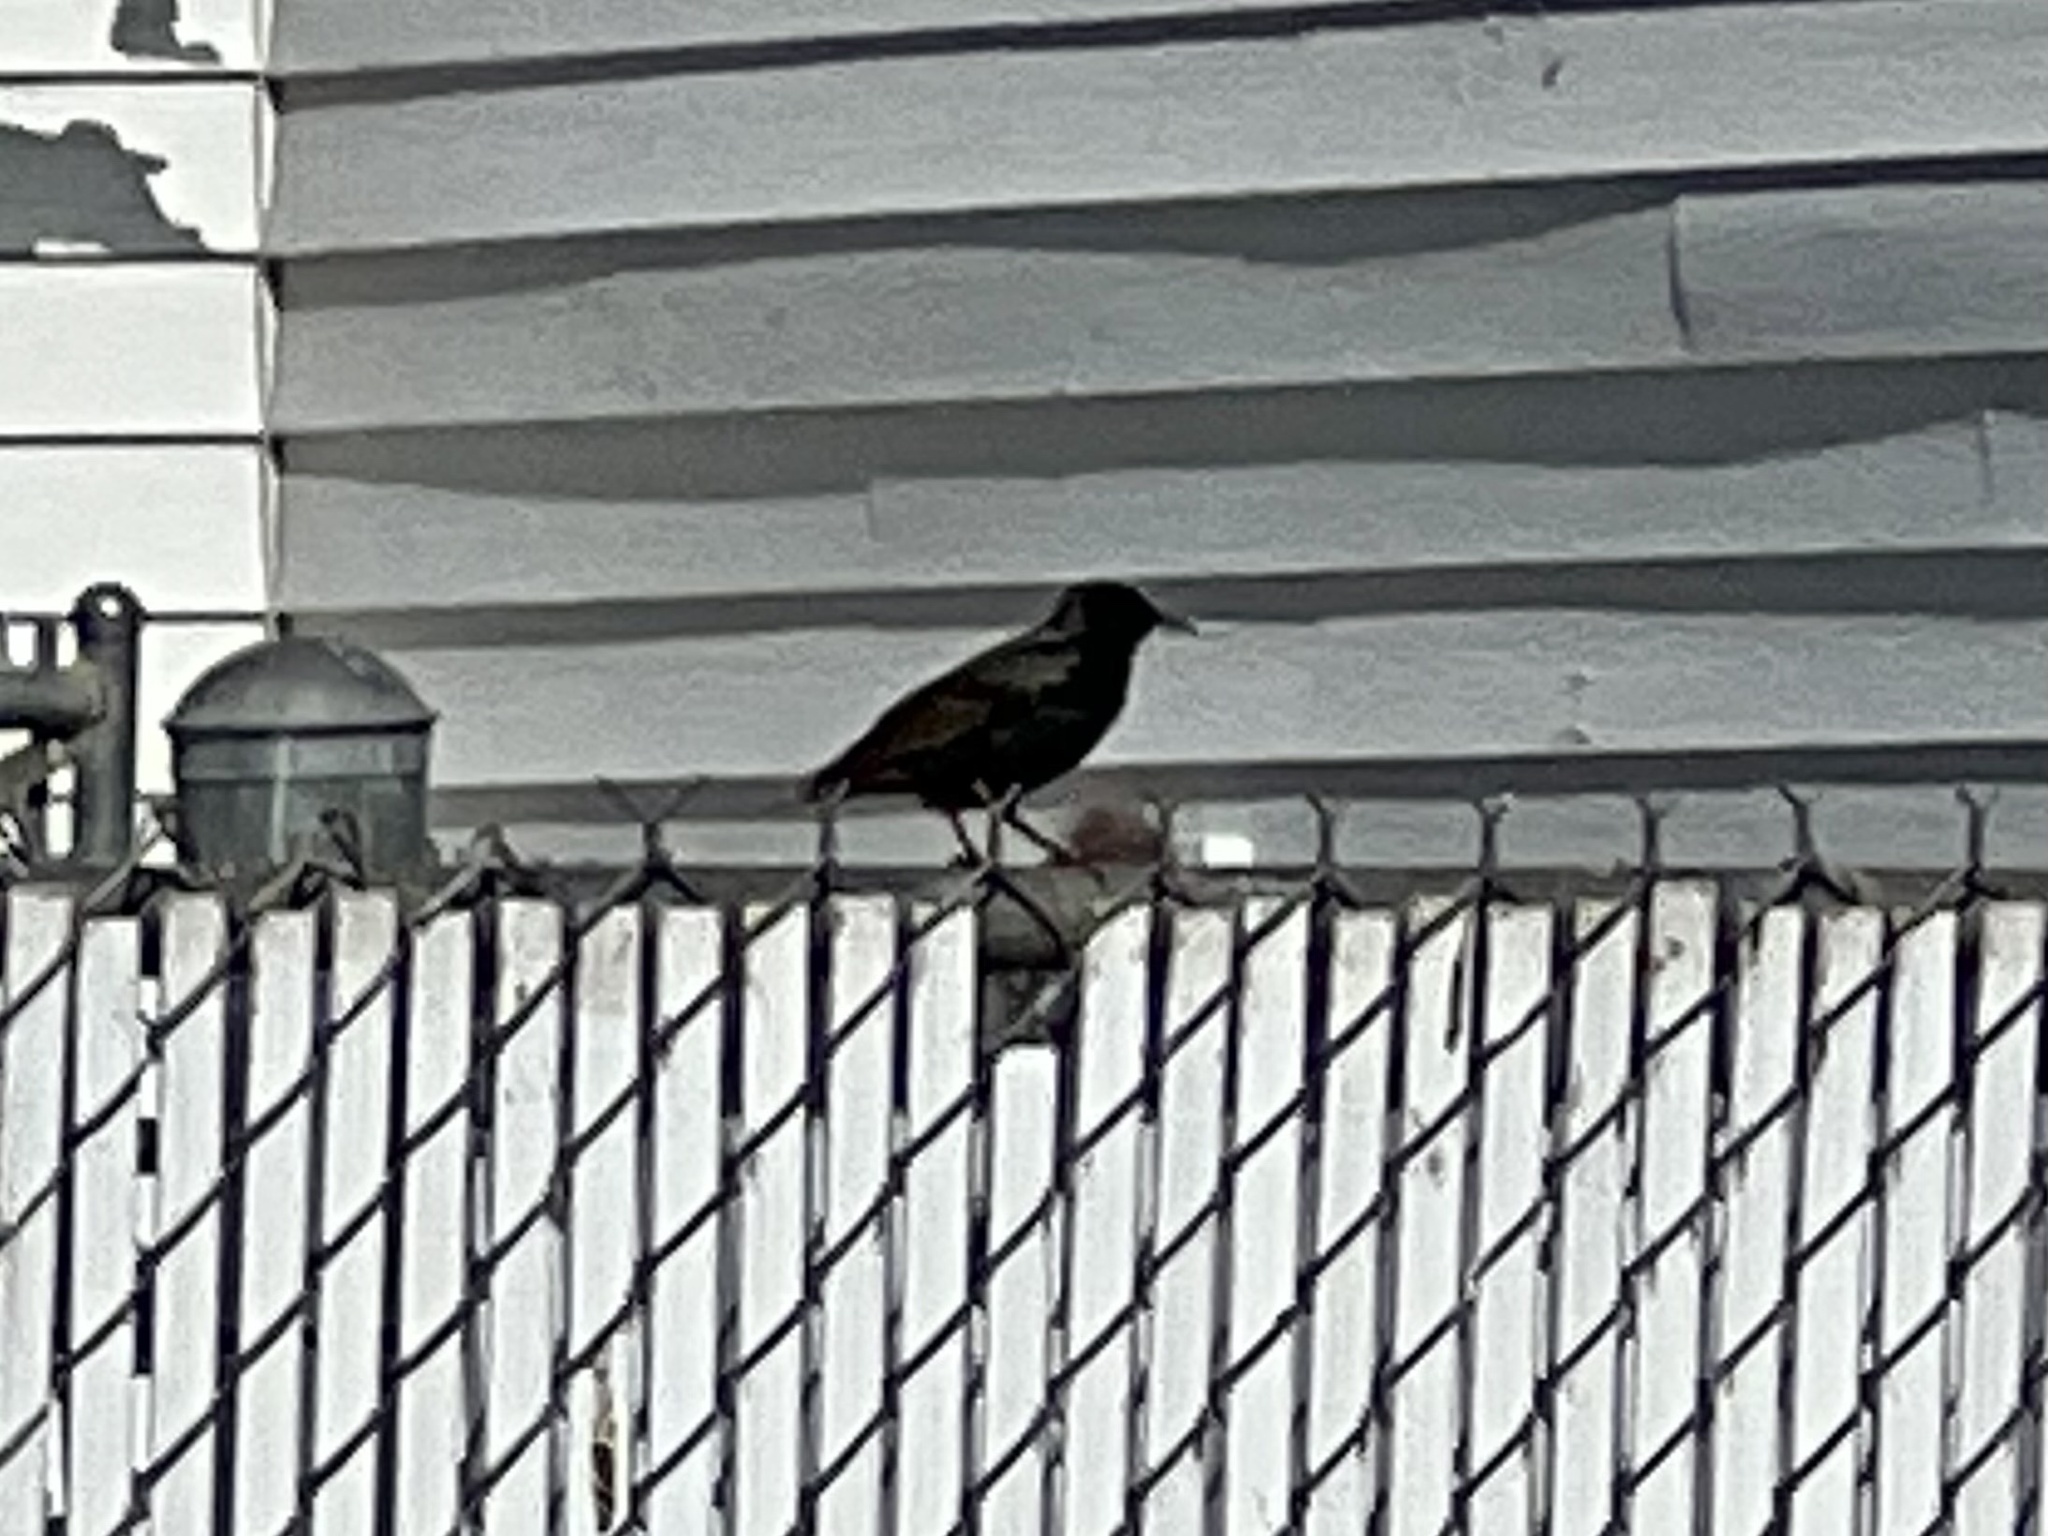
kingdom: Animalia
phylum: Chordata
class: Aves
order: Passeriformes
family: Sturnidae
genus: Sturnus
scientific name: Sturnus vulgaris
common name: Common starling
